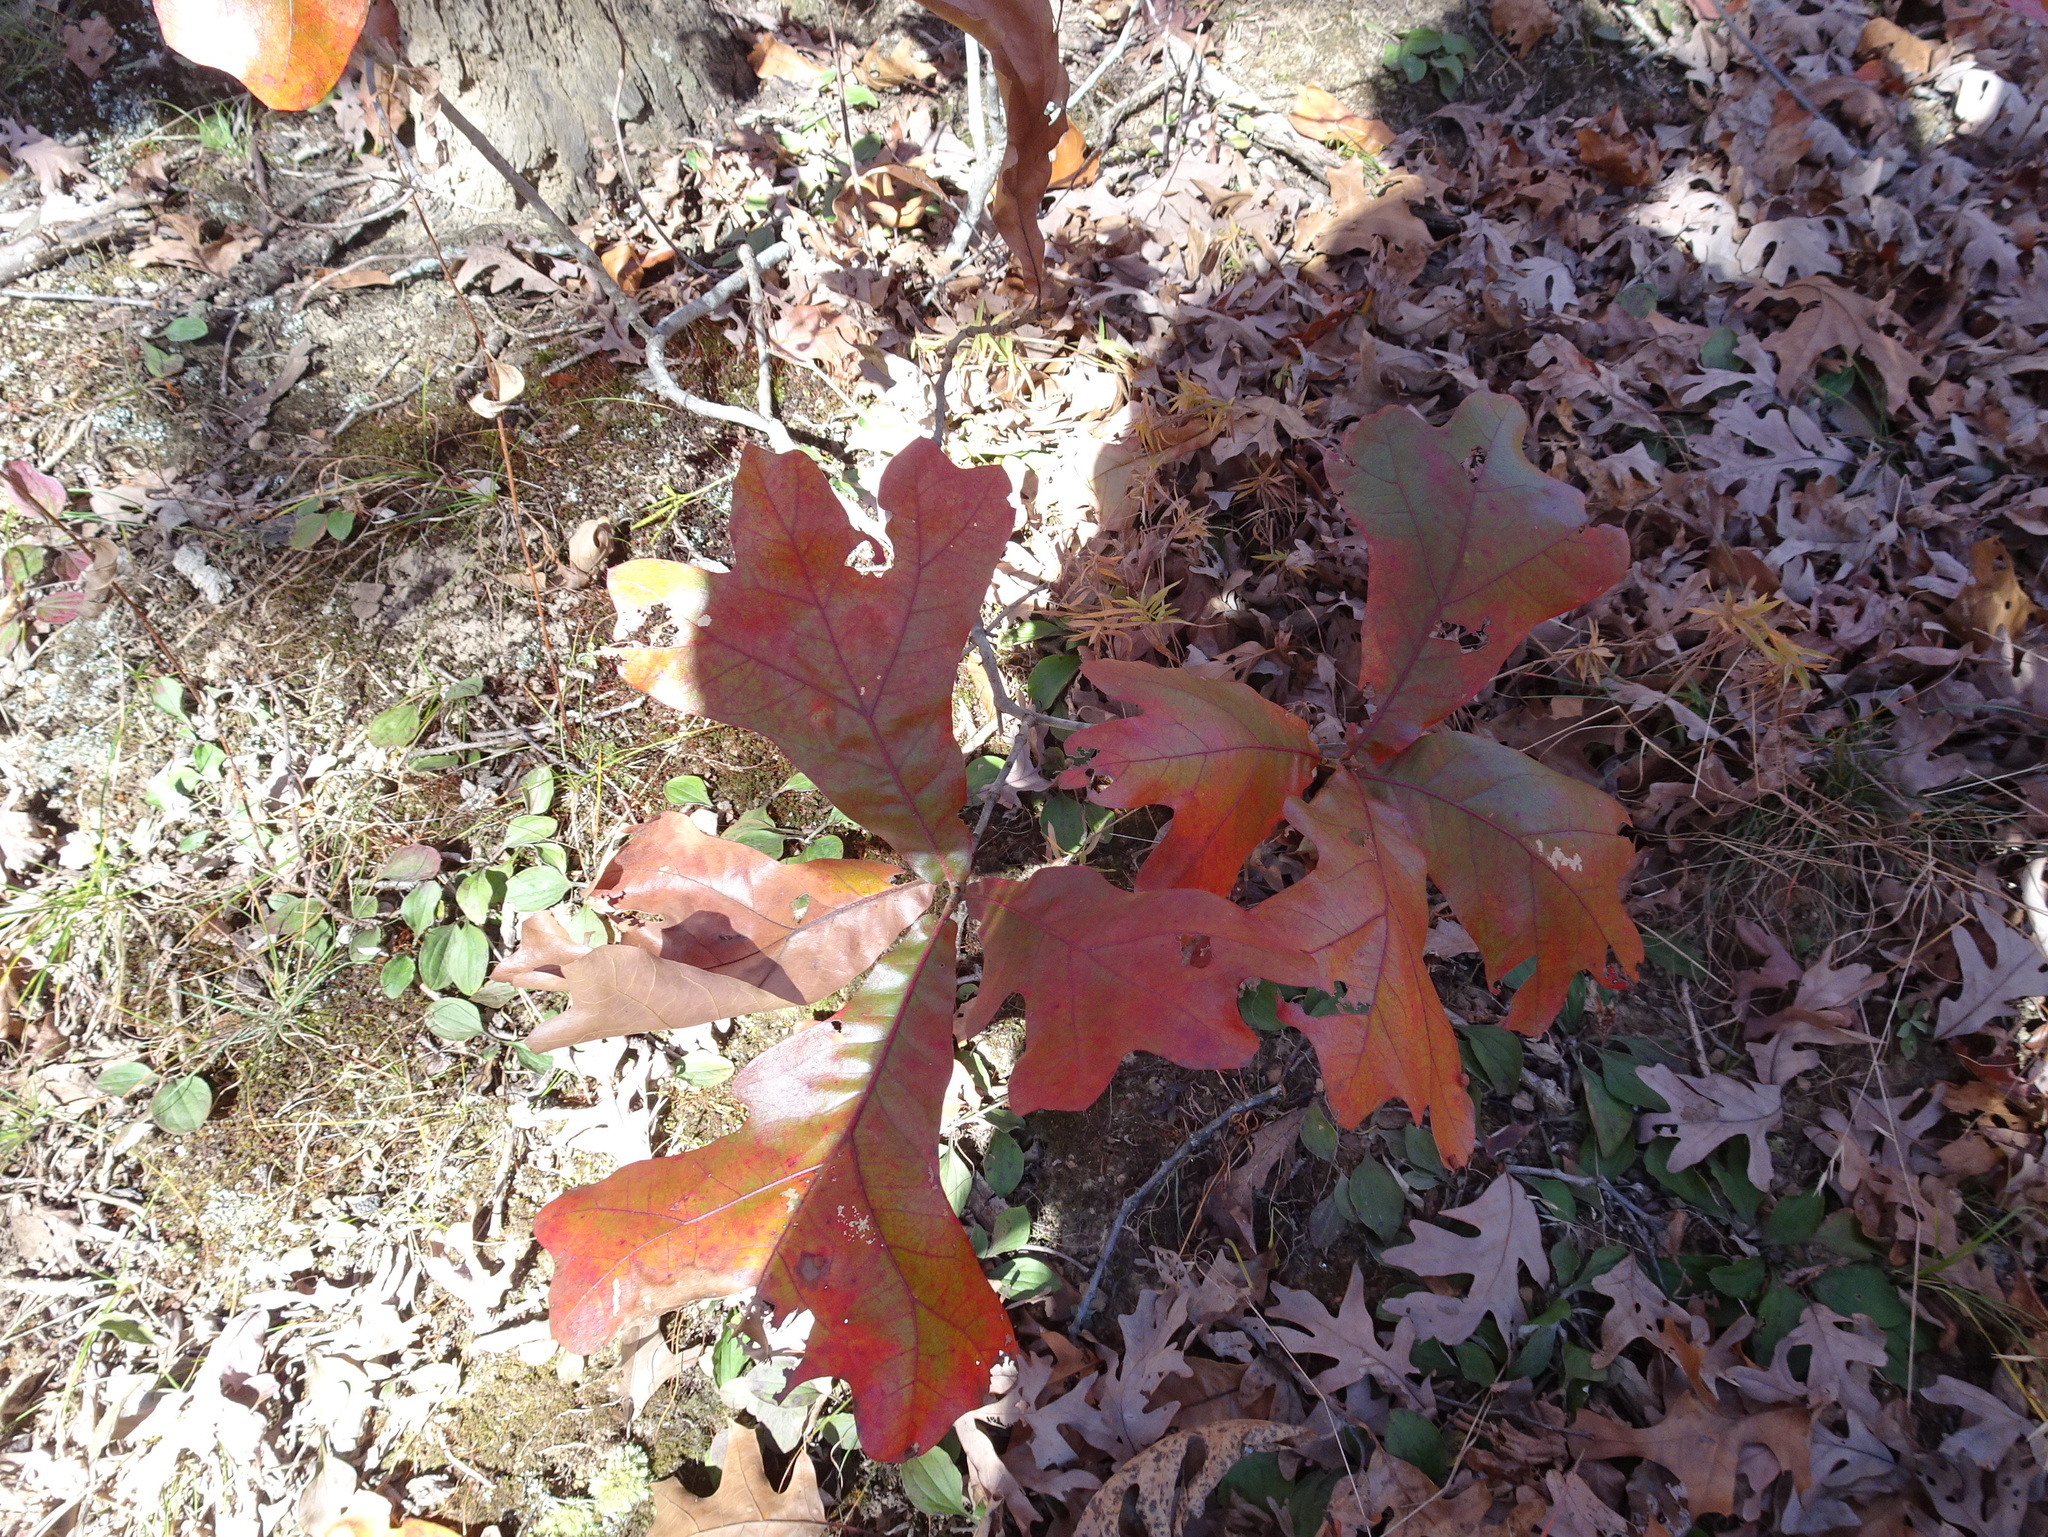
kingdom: Plantae
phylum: Tracheophyta
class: Magnoliopsida
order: Fagales
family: Fagaceae
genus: Quercus
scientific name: Quercus marilandica
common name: Blackjack oak
